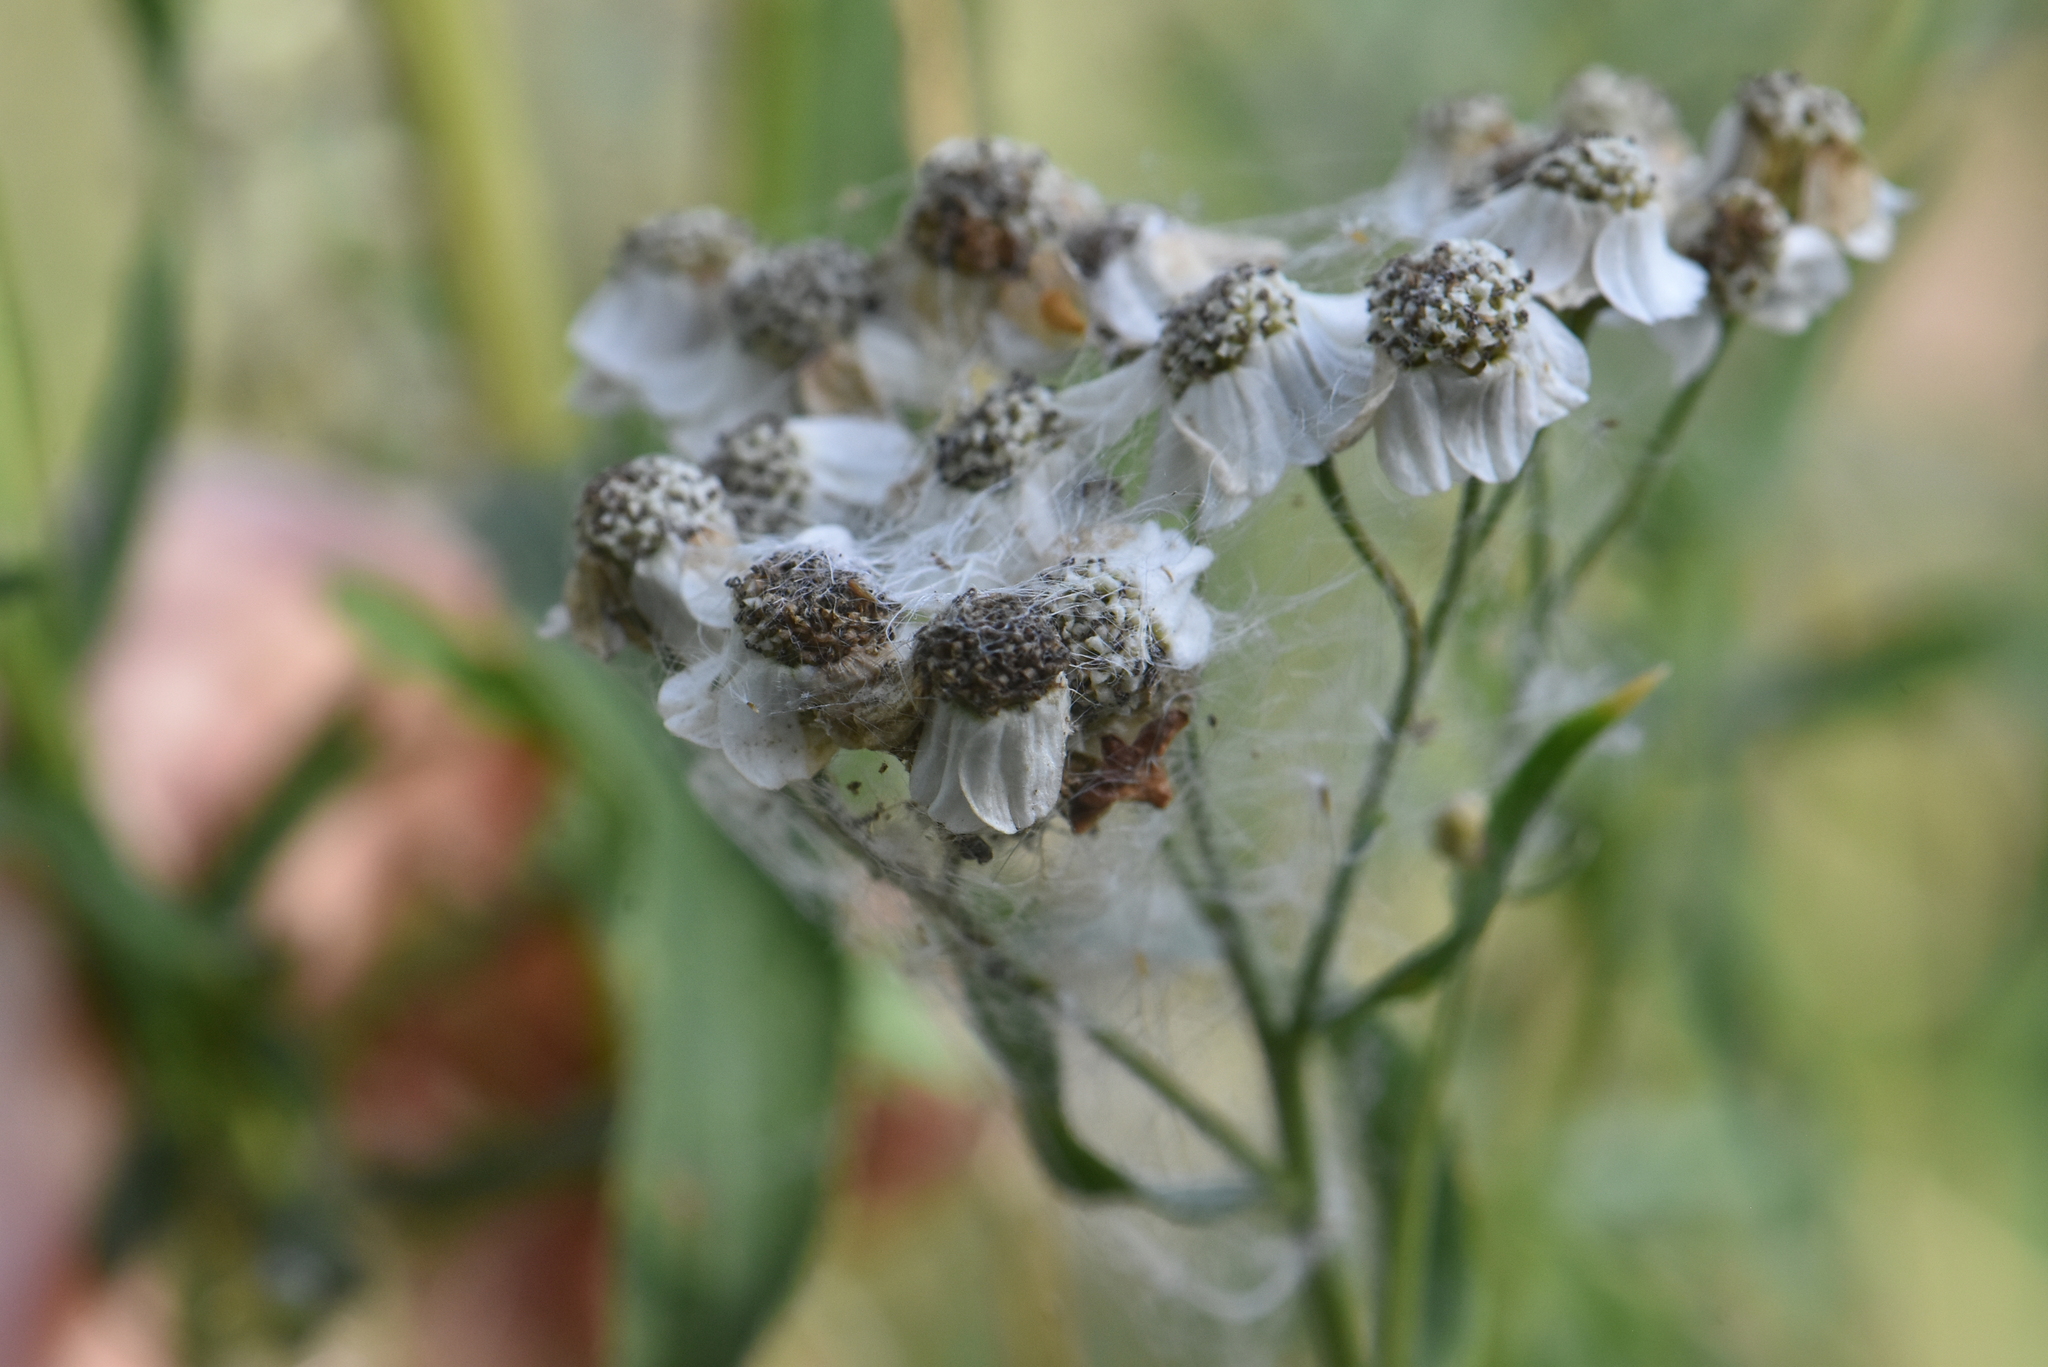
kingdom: Plantae
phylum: Tracheophyta
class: Magnoliopsida
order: Asterales
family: Asteraceae
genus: Achillea
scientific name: Achillea salicifolia
